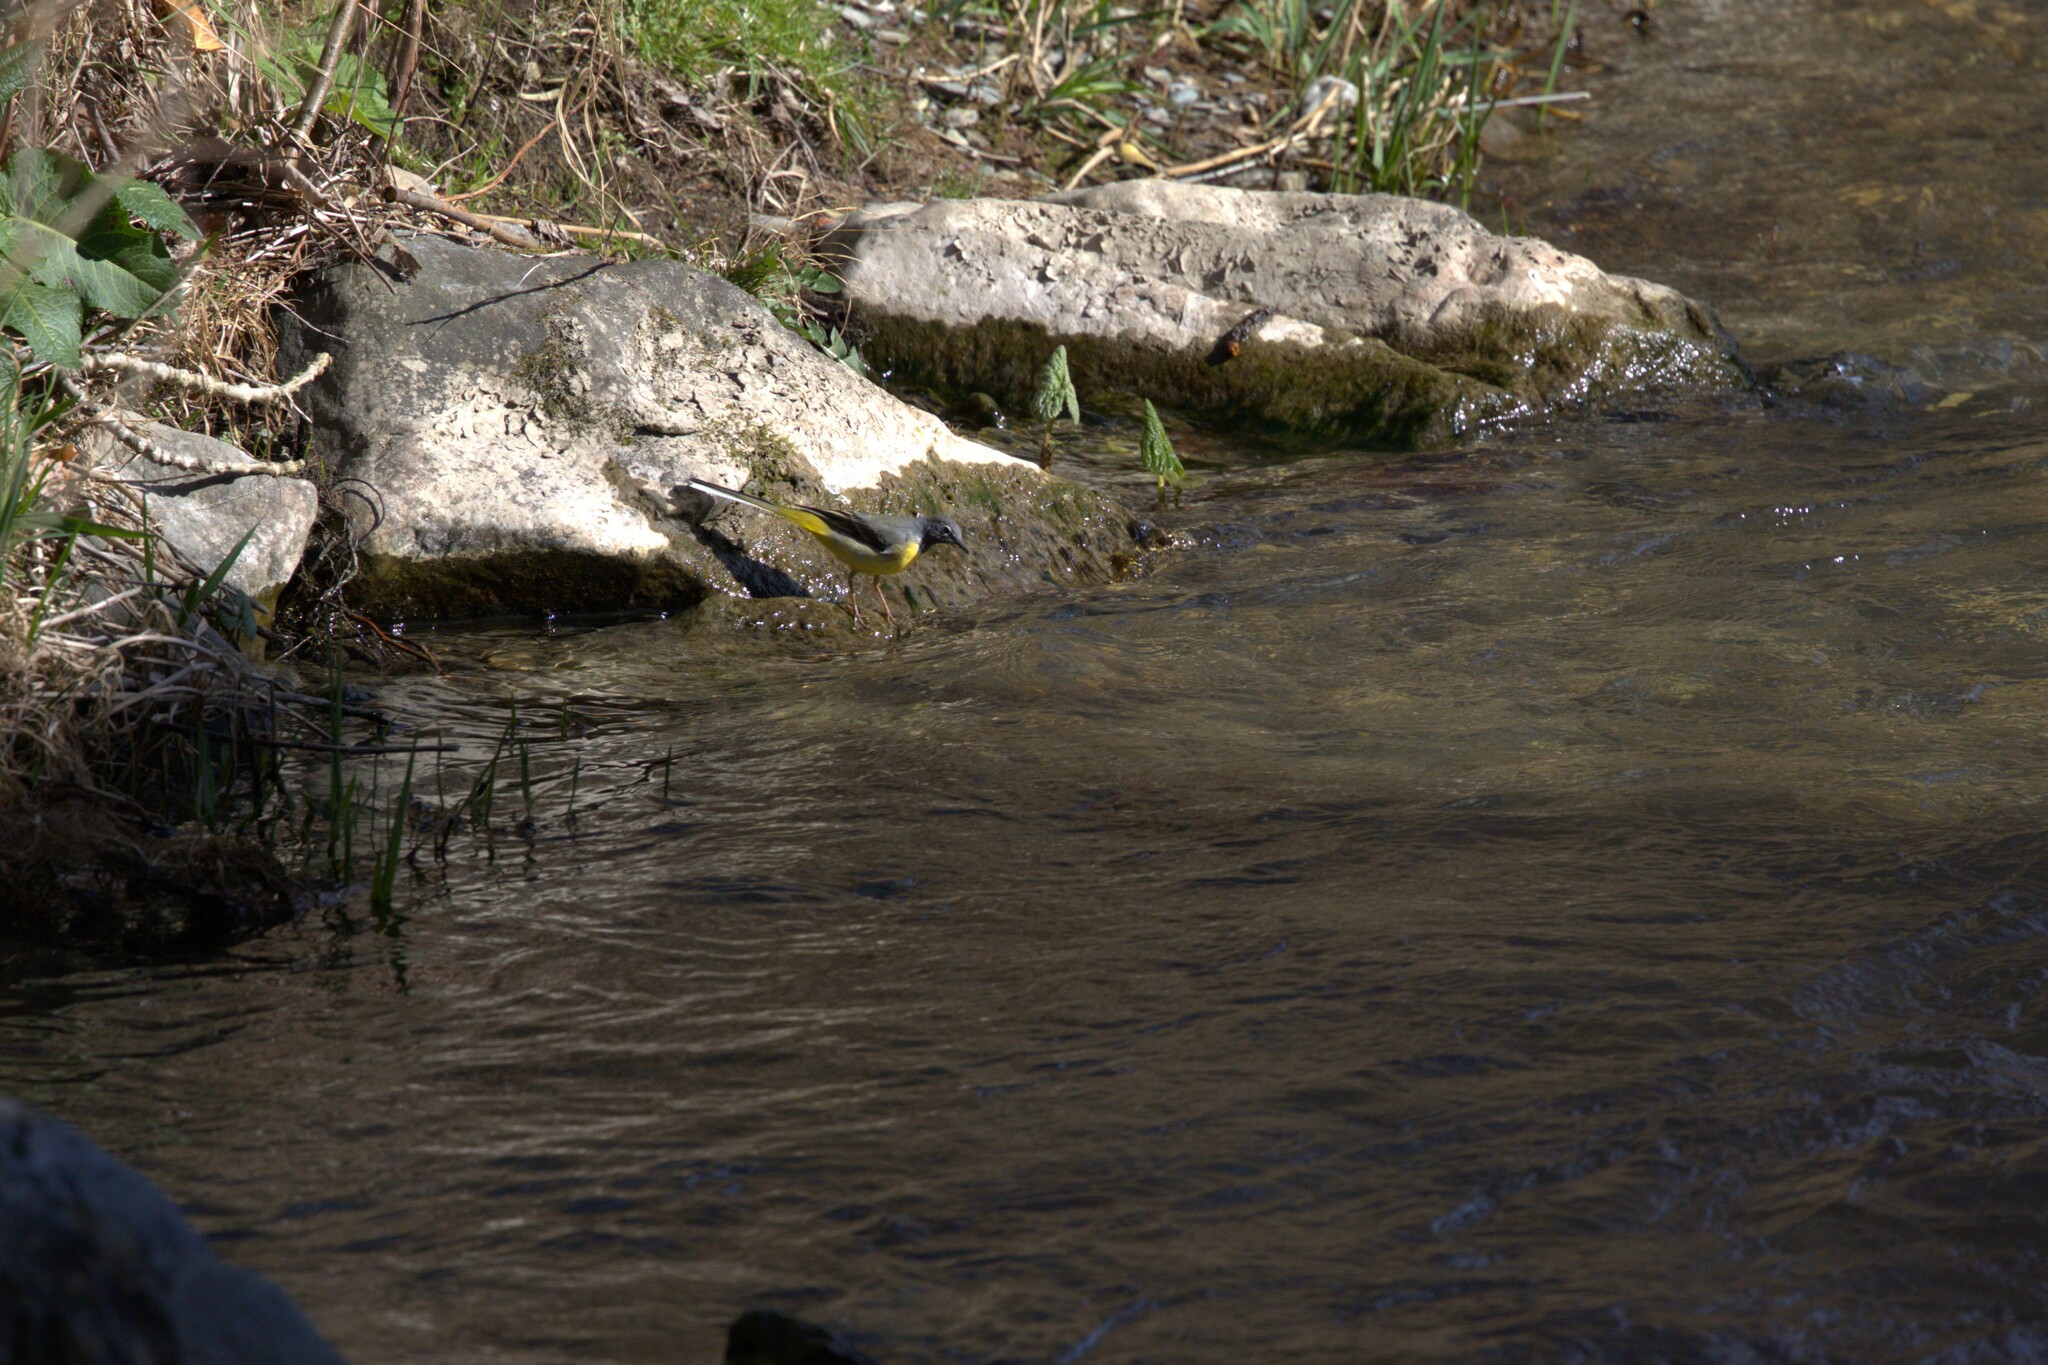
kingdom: Animalia
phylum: Chordata
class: Aves
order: Passeriformes
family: Motacillidae
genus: Motacilla
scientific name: Motacilla cinerea
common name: Grey wagtail
